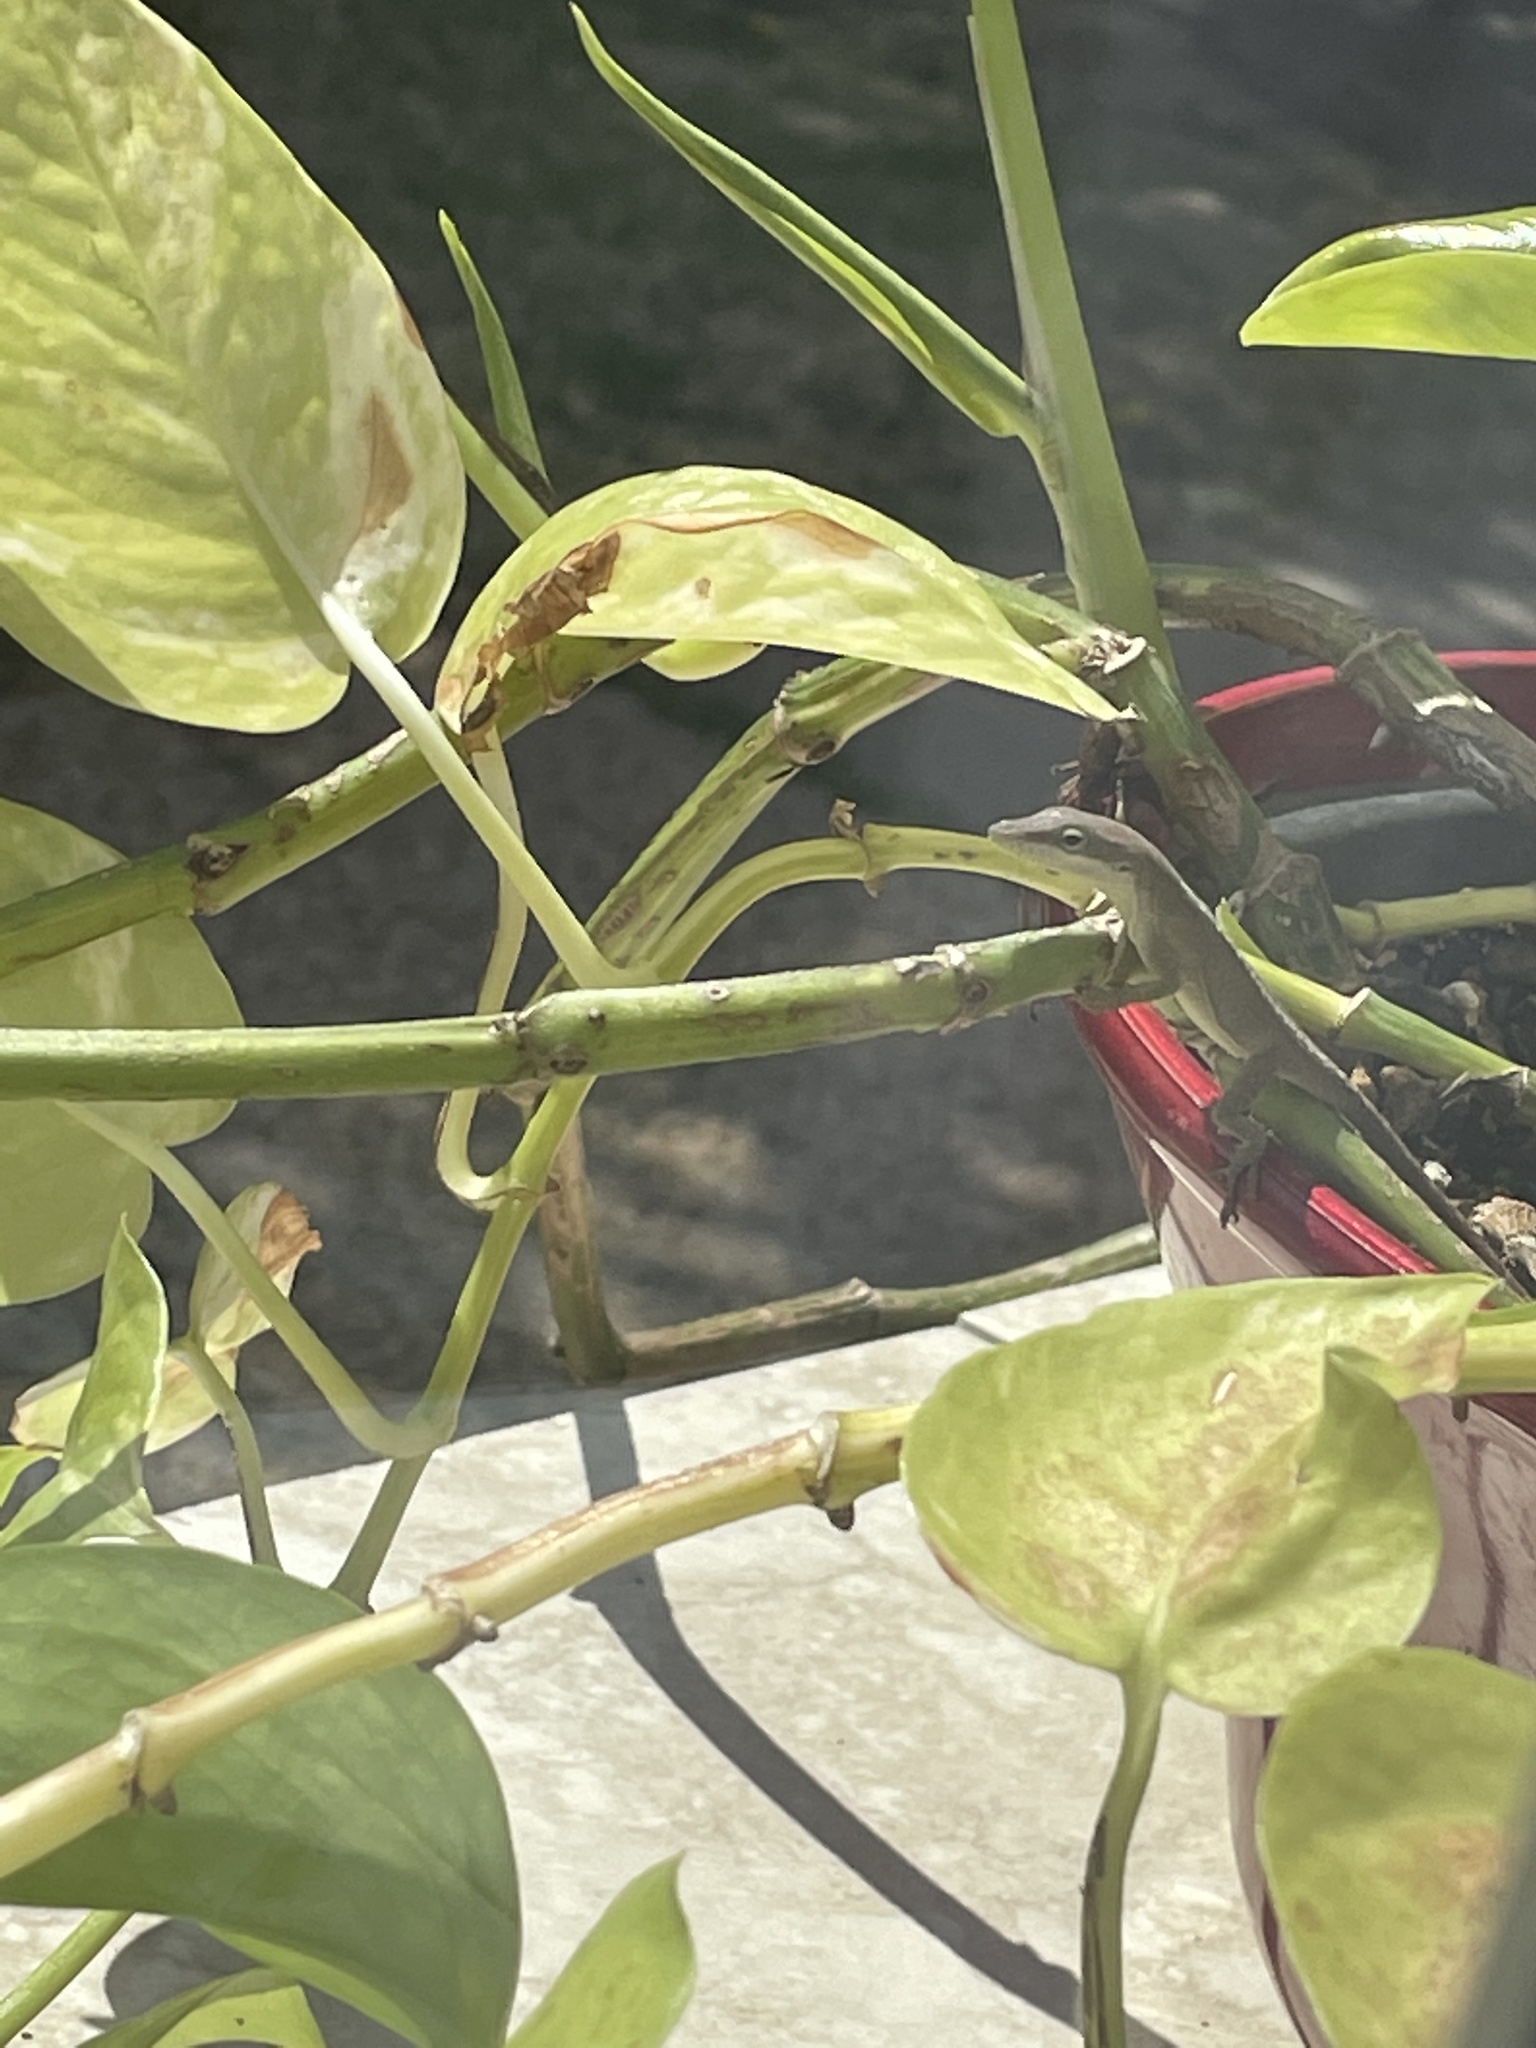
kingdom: Animalia
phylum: Chordata
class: Squamata
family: Dactyloidae
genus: Anolis
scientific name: Anolis carolinensis
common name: Green anole
